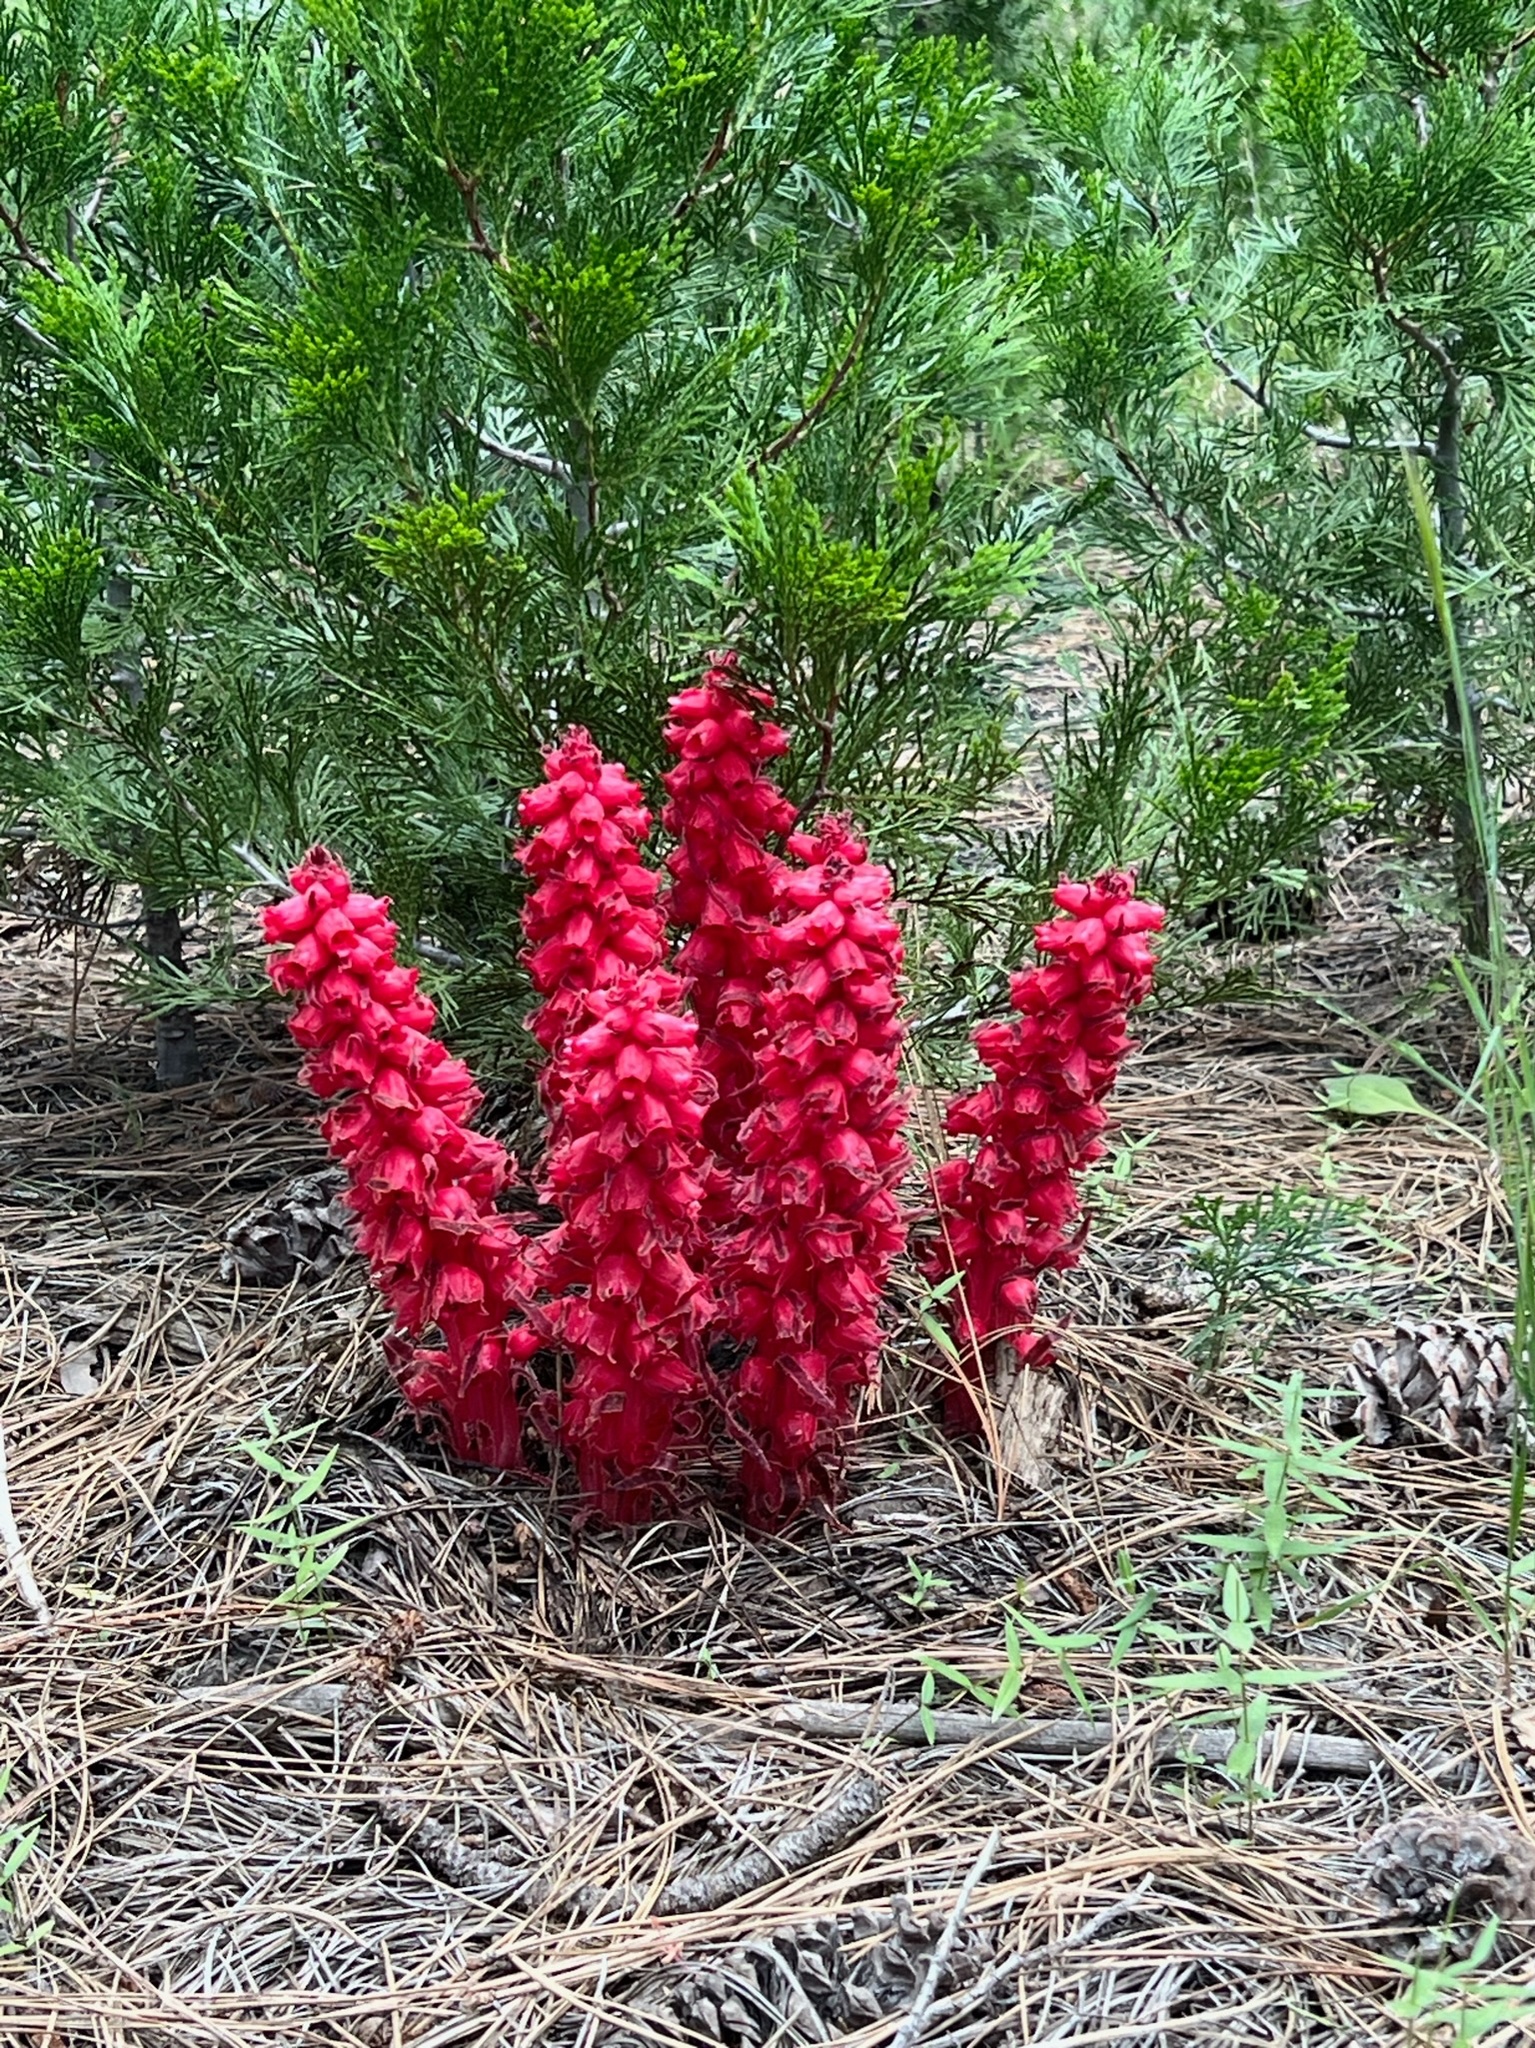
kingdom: Plantae
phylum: Tracheophyta
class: Magnoliopsida
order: Ericales
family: Ericaceae
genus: Sarcodes
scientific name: Sarcodes sanguinea
